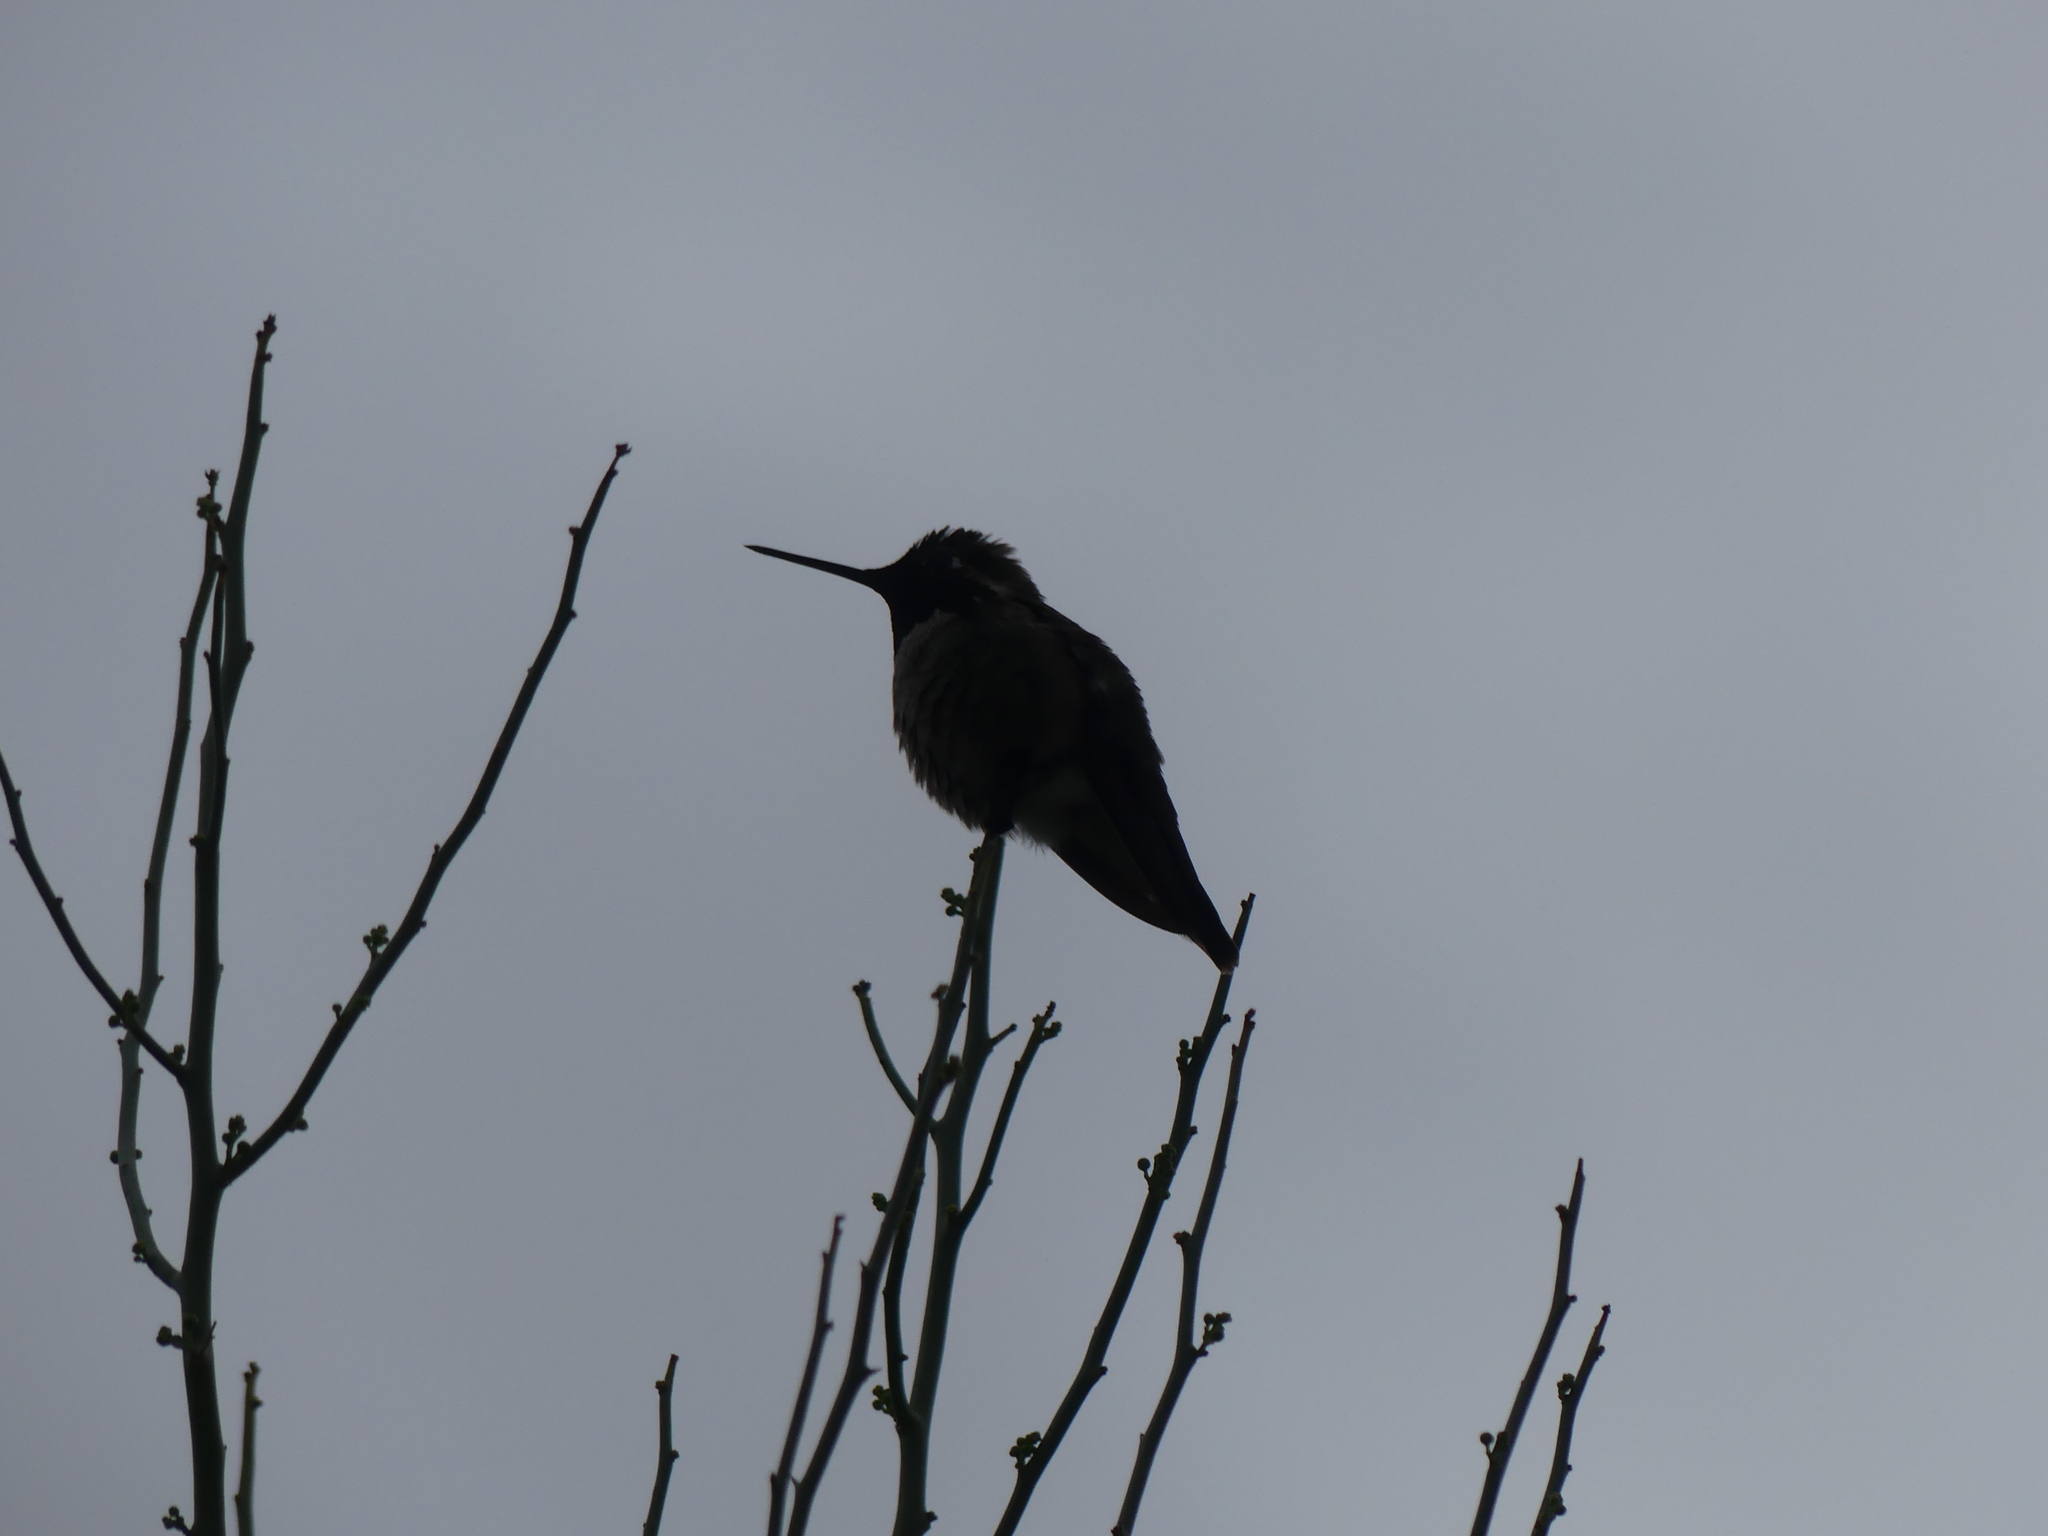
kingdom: Animalia
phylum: Chordata
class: Aves
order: Apodiformes
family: Trochilidae
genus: Calypte
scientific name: Calypte anna
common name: Anna's hummingbird
